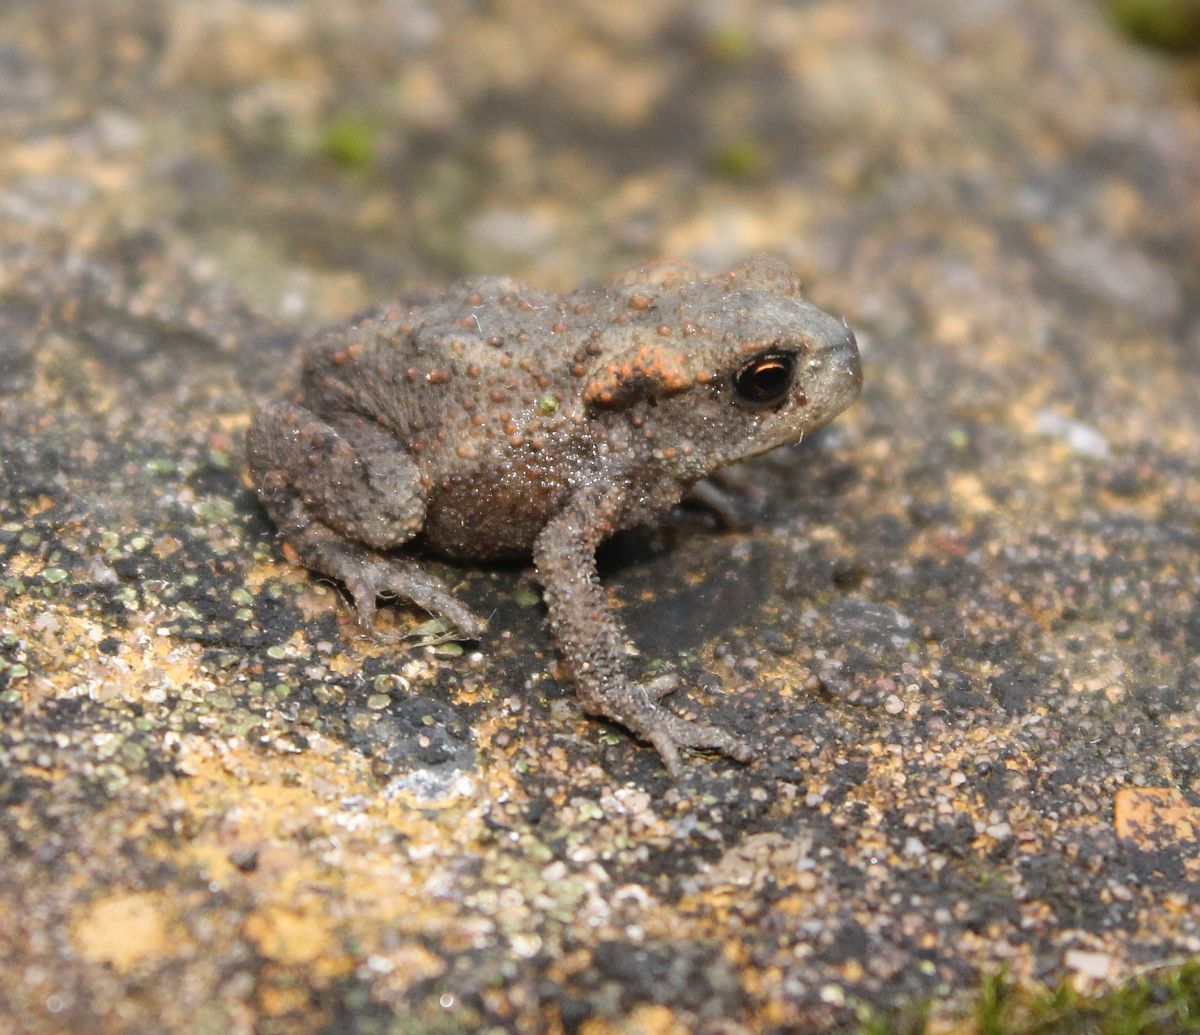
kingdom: Animalia
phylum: Chordata
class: Amphibia
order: Anura
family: Bufonidae
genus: Bufo
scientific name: Bufo bufo
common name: Common toad
